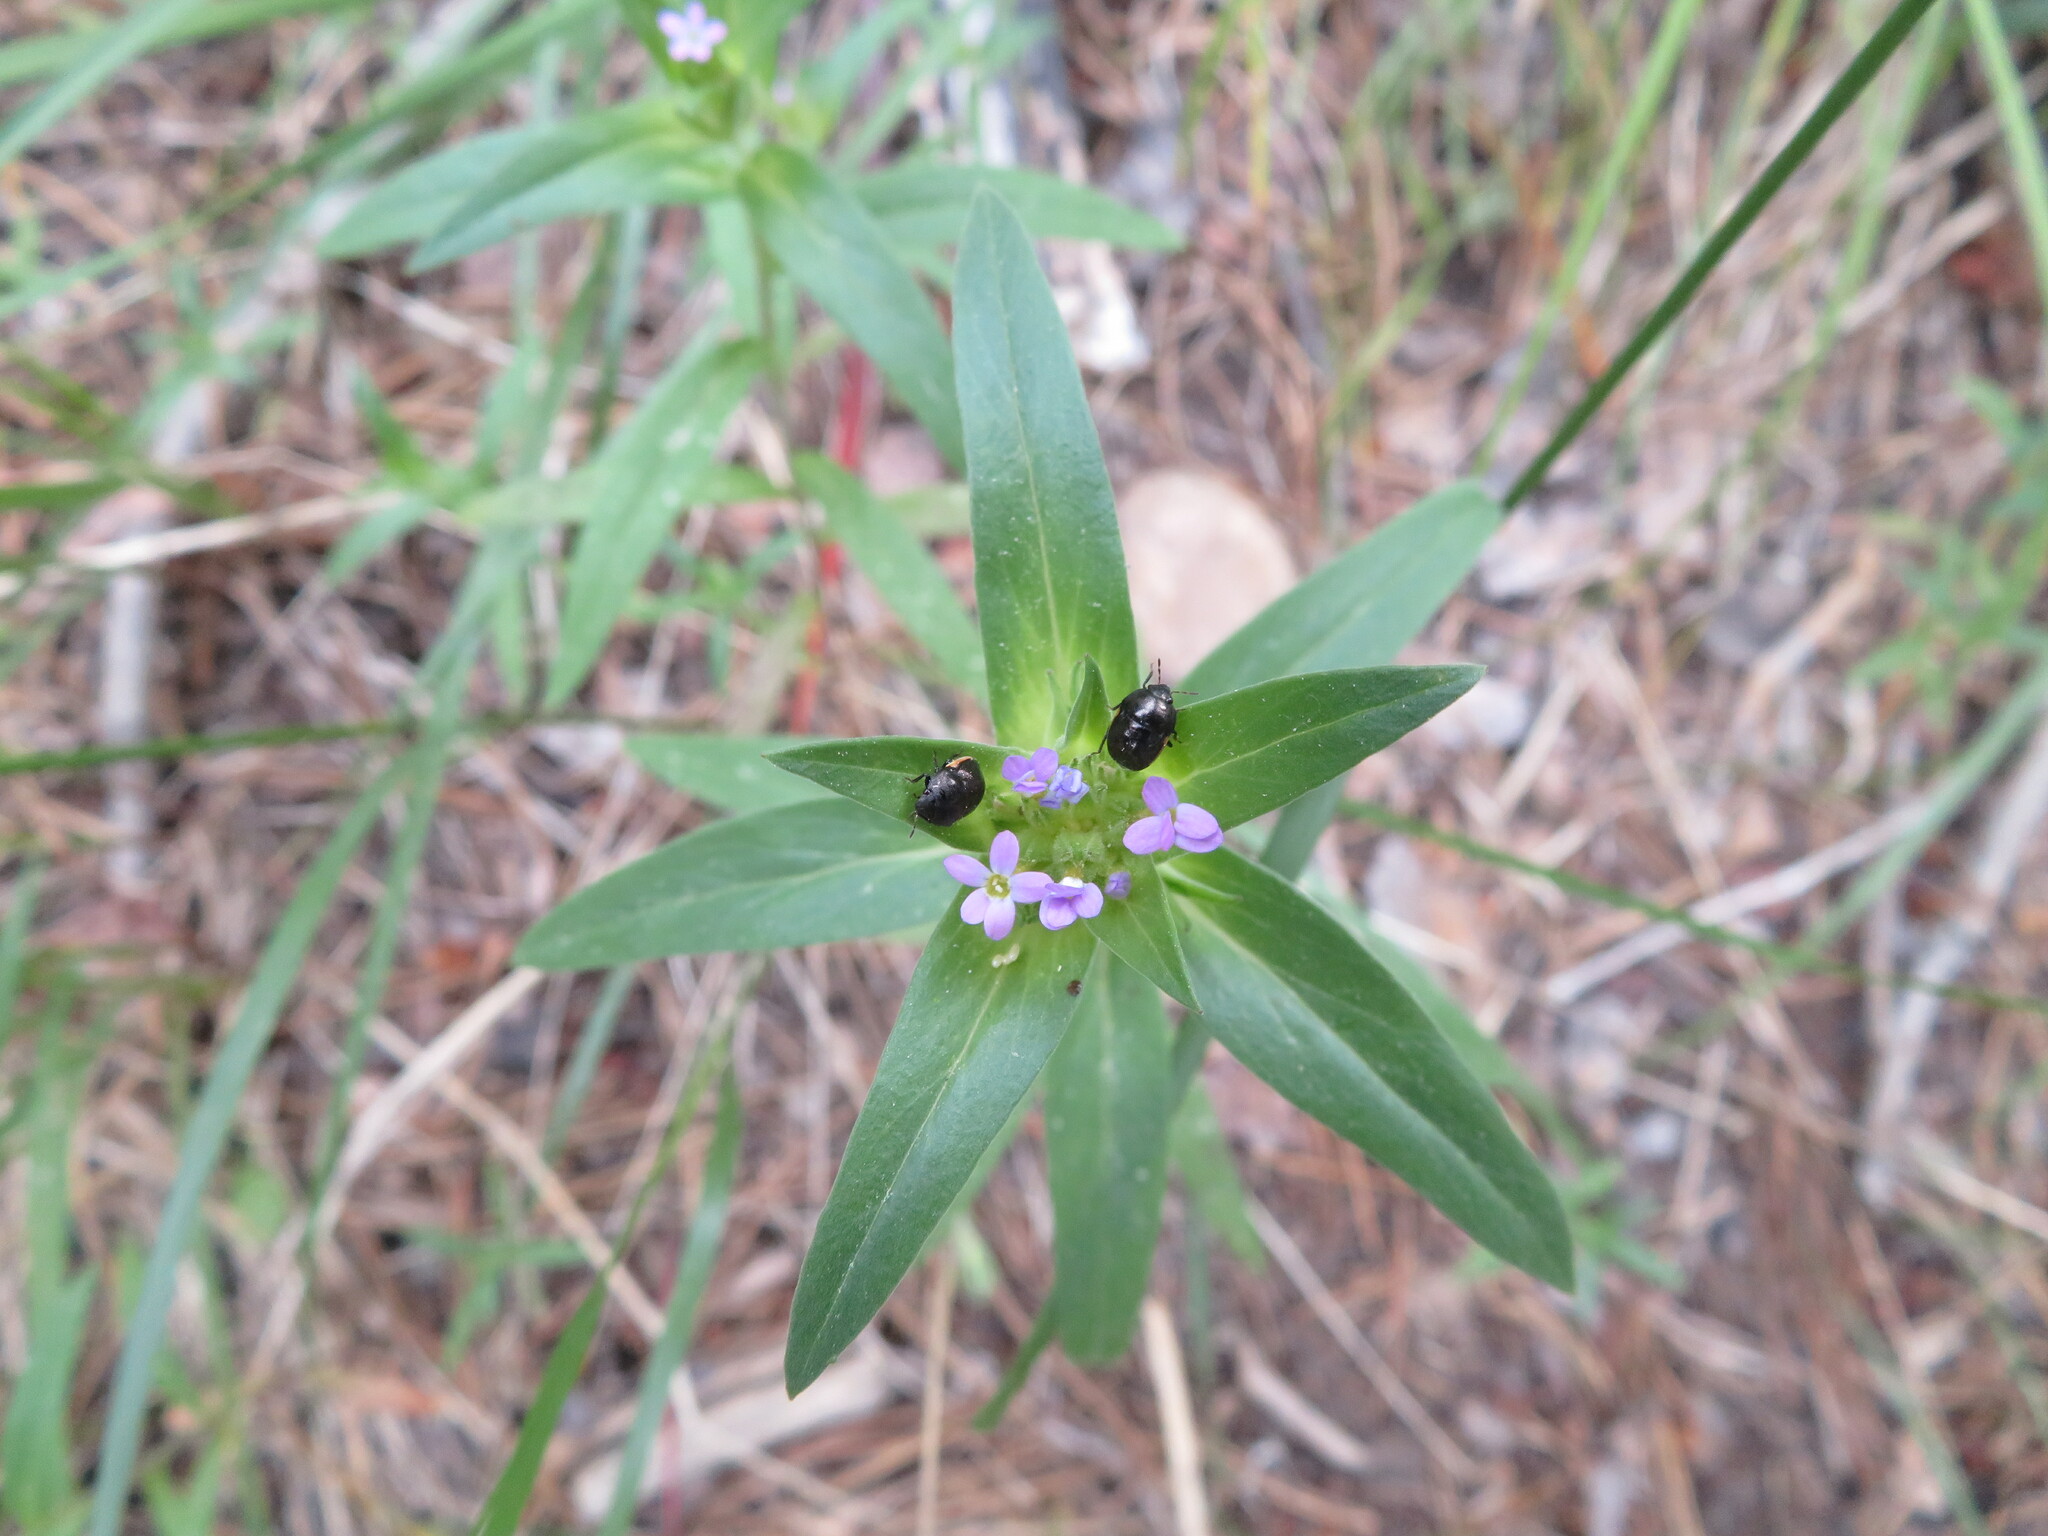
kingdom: Plantae
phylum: Tracheophyta
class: Magnoliopsida
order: Ericales
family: Polemoniaceae
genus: Collomia
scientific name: Collomia linearis
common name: Tiny trumpet
